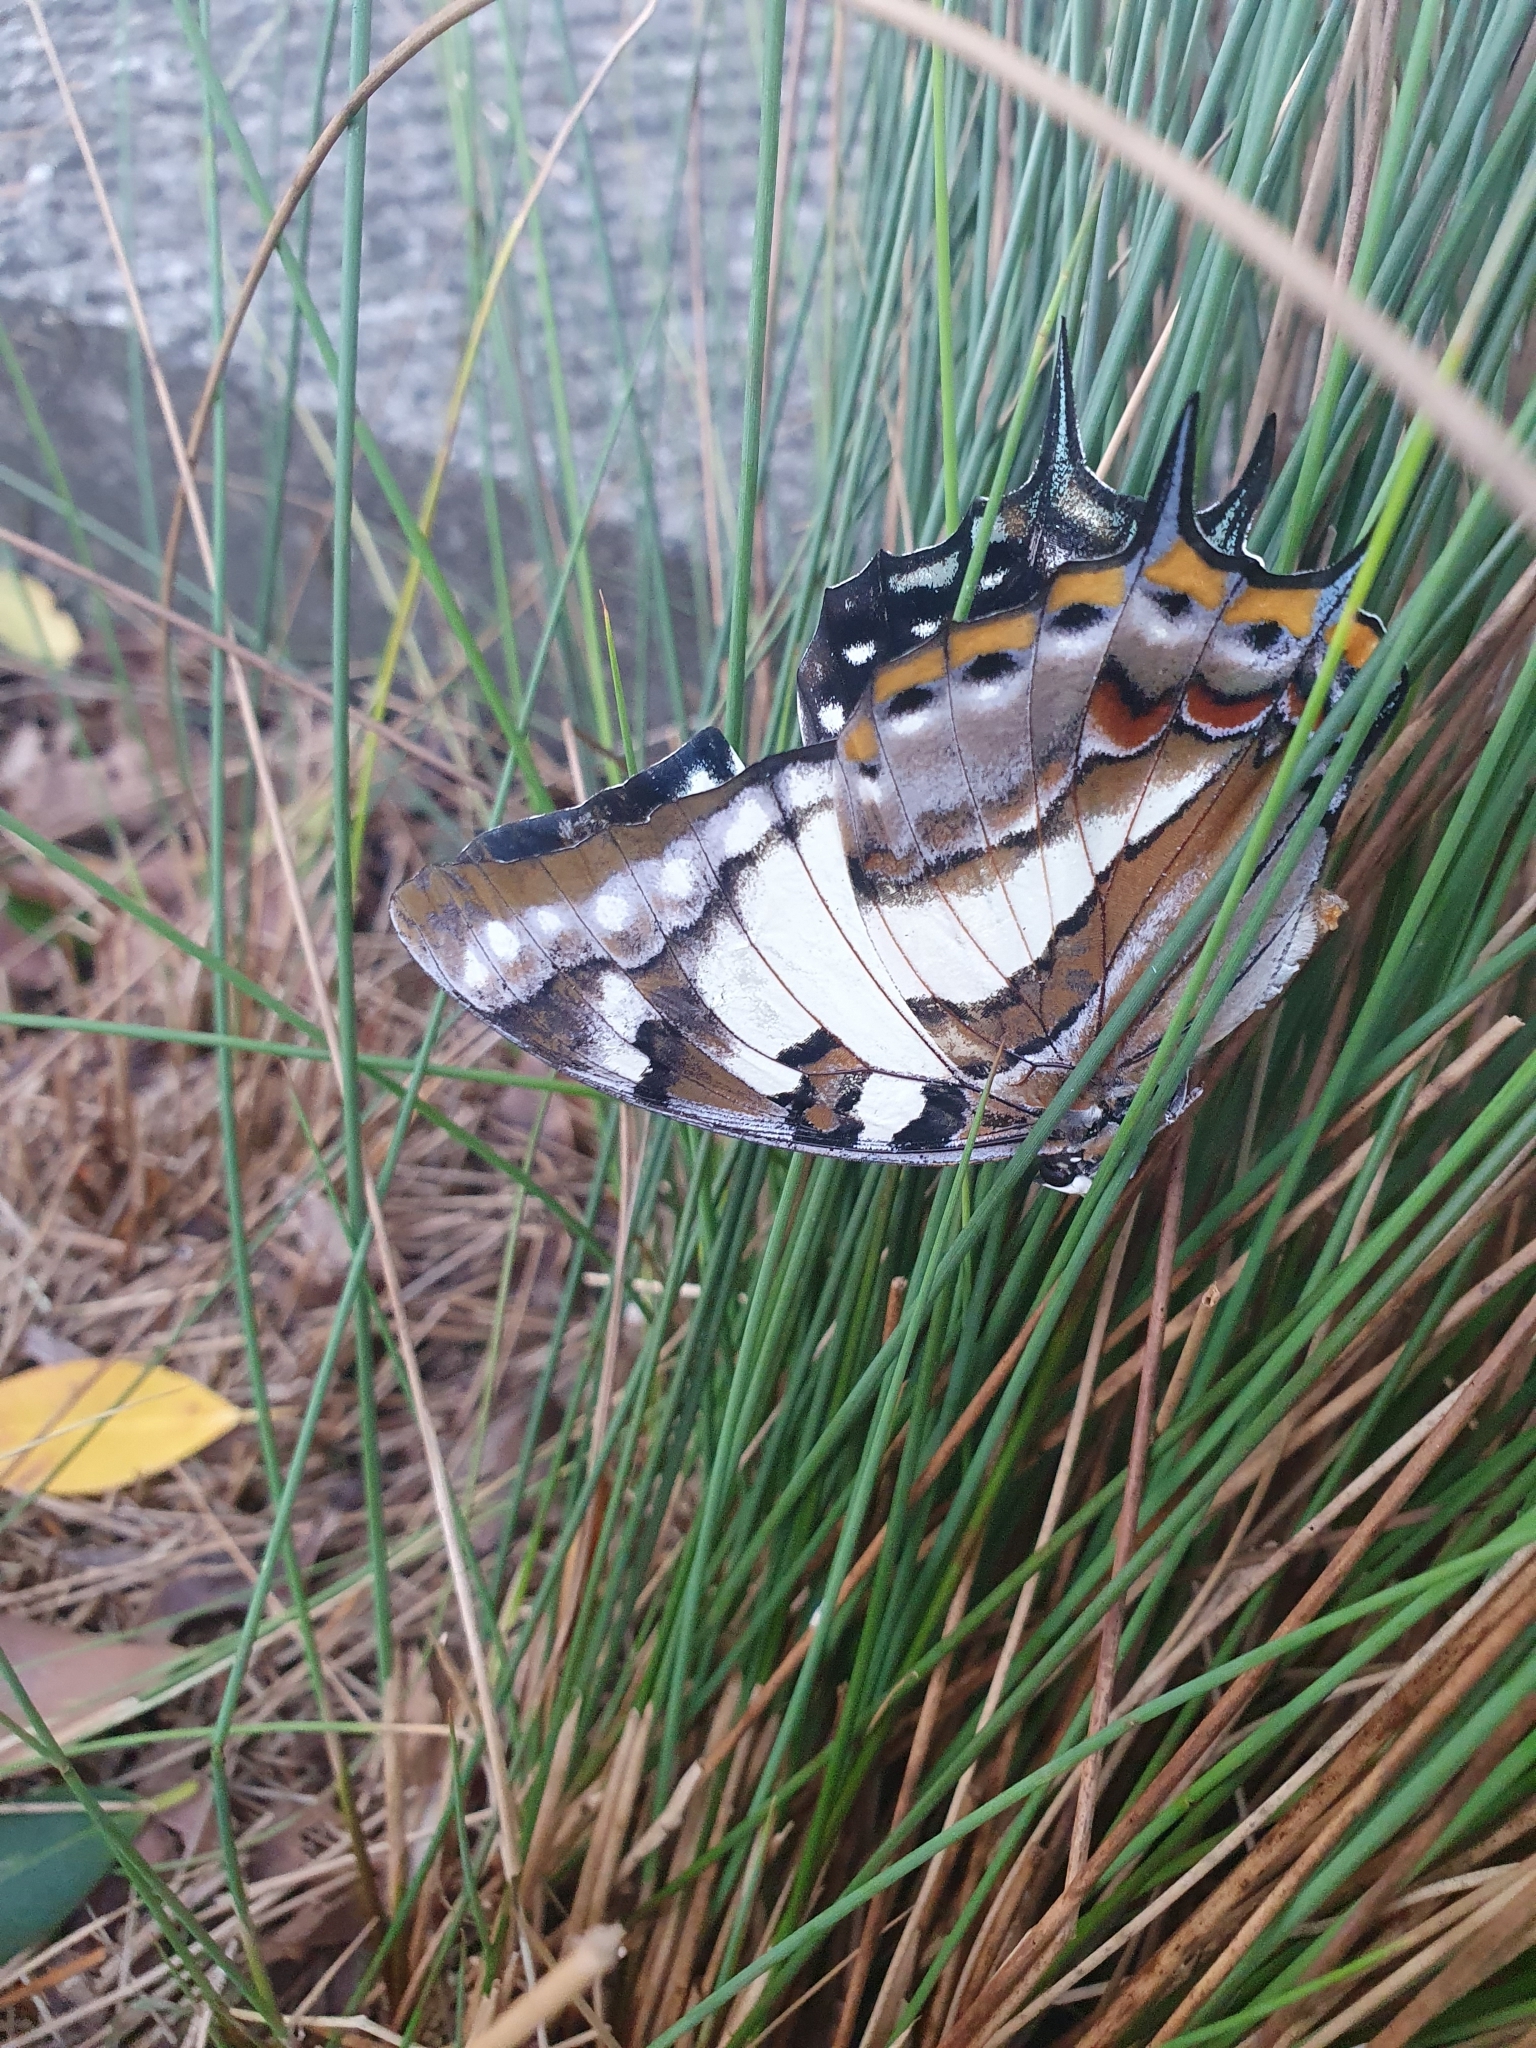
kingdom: Animalia
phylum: Arthropoda
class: Insecta
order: Lepidoptera
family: Nymphalidae
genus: Charaxes
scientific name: Charaxes
